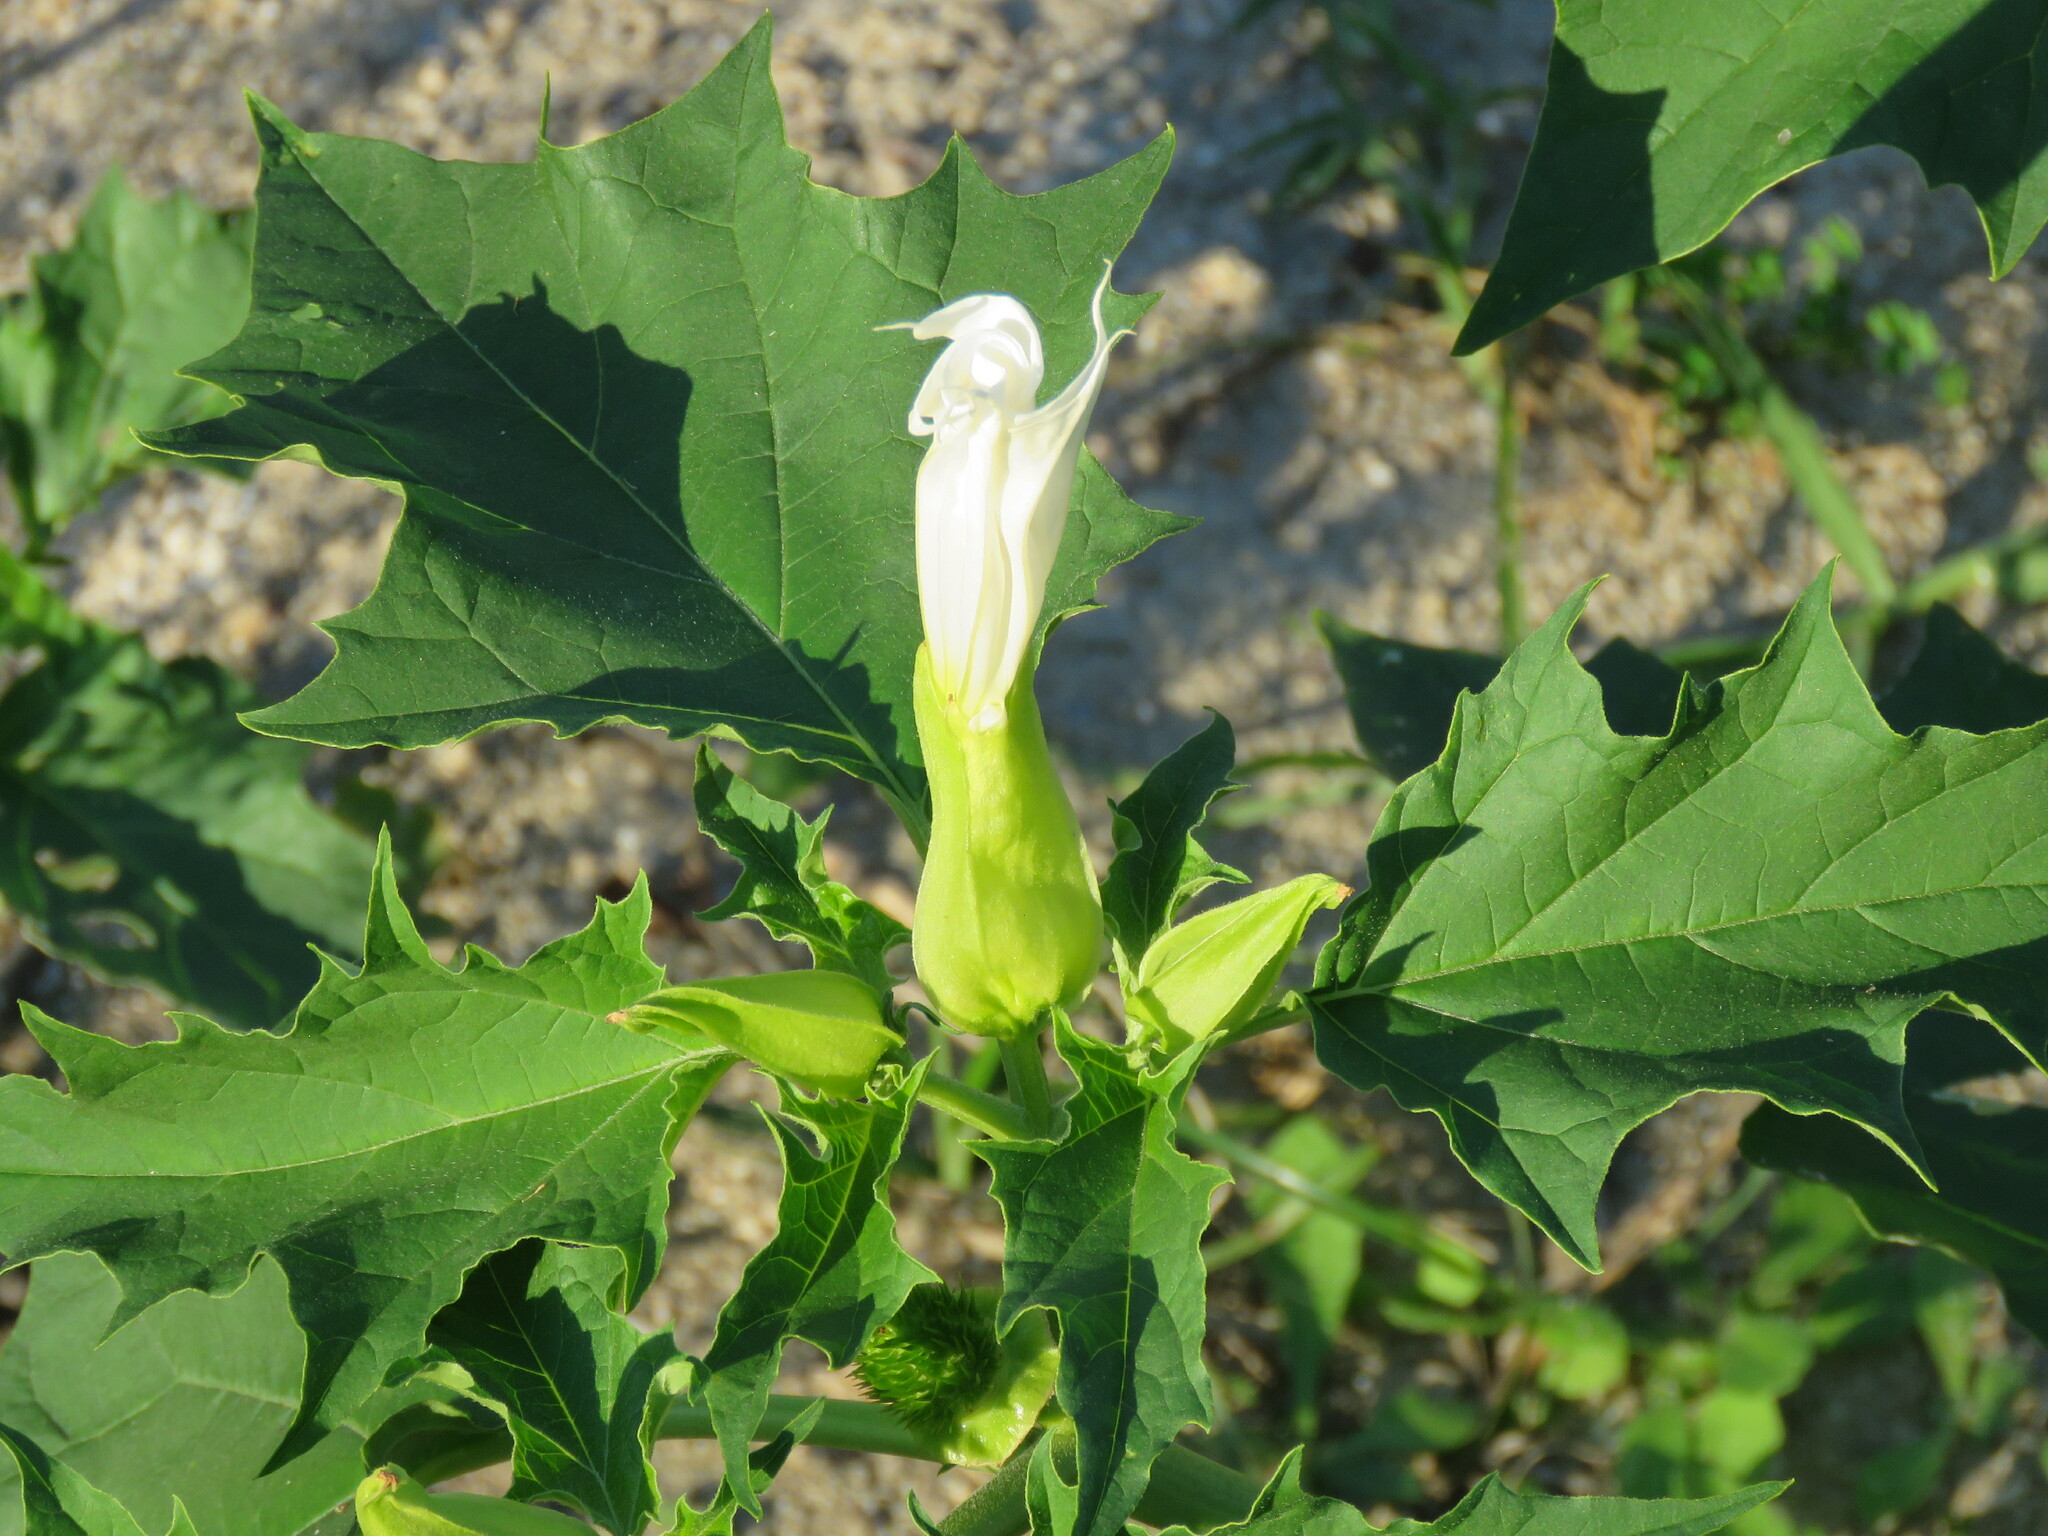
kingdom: Plantae
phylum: Tracheophyta
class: Magnoliopsida
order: Solanales
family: Solanaceae
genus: Datura
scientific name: Datura stramonium
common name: Thorn-apple
